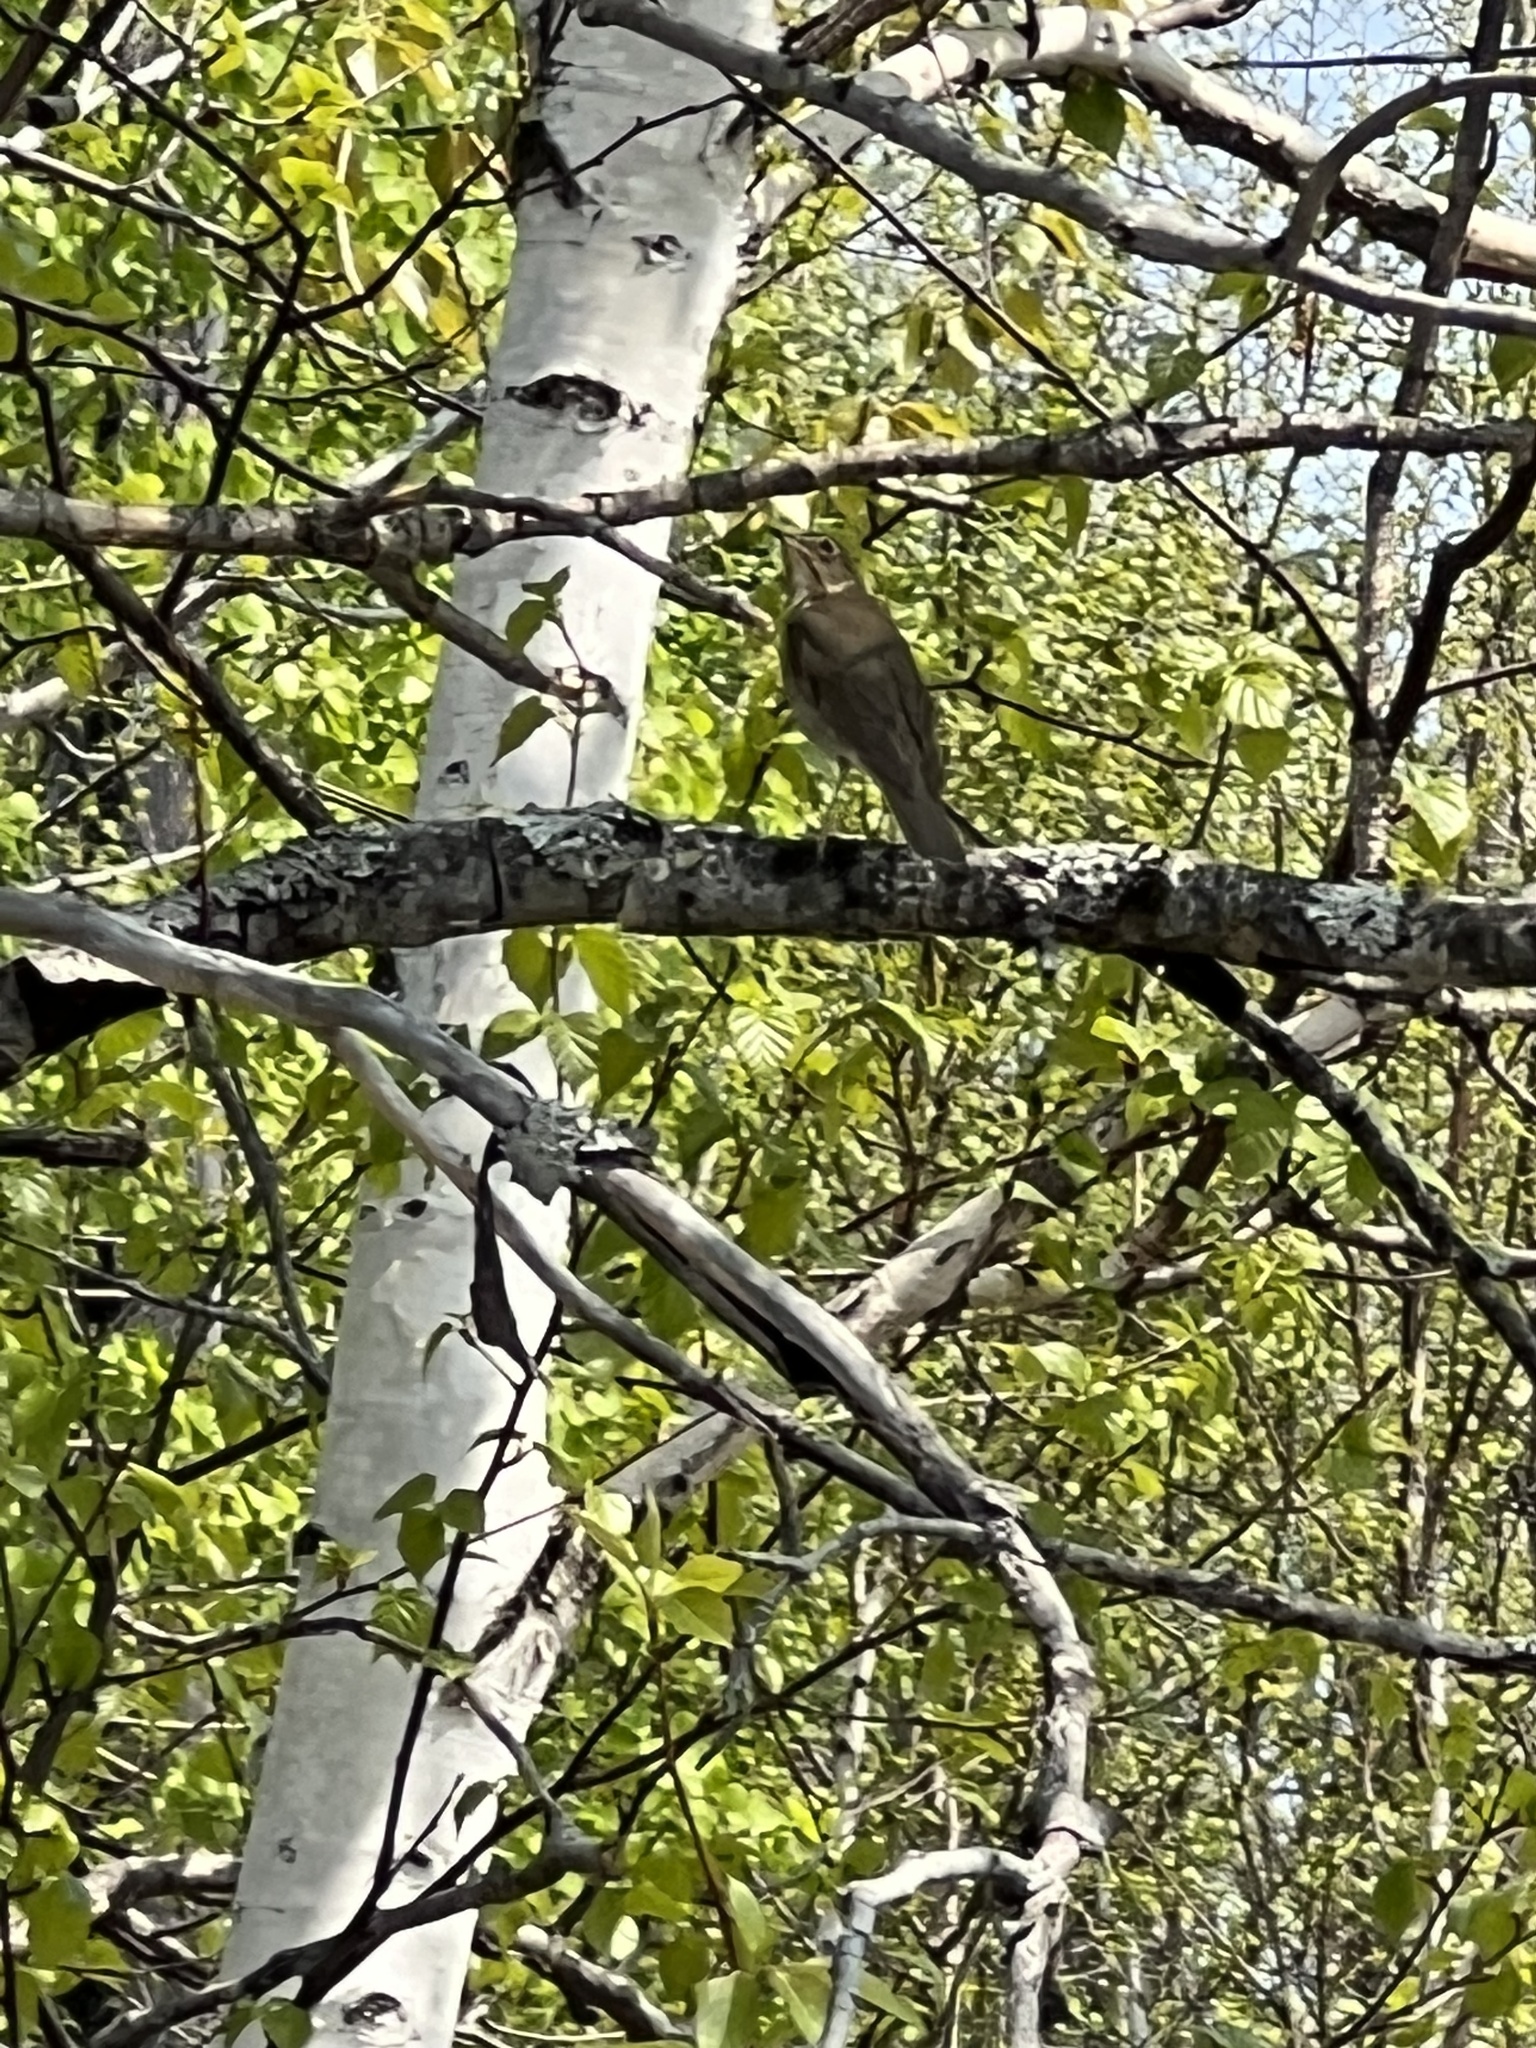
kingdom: Animalia
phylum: Chordata
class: Aves
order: Passeriformes
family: Turdidae
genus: Catharus
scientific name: Catharus guttatus
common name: Hermit thrush
